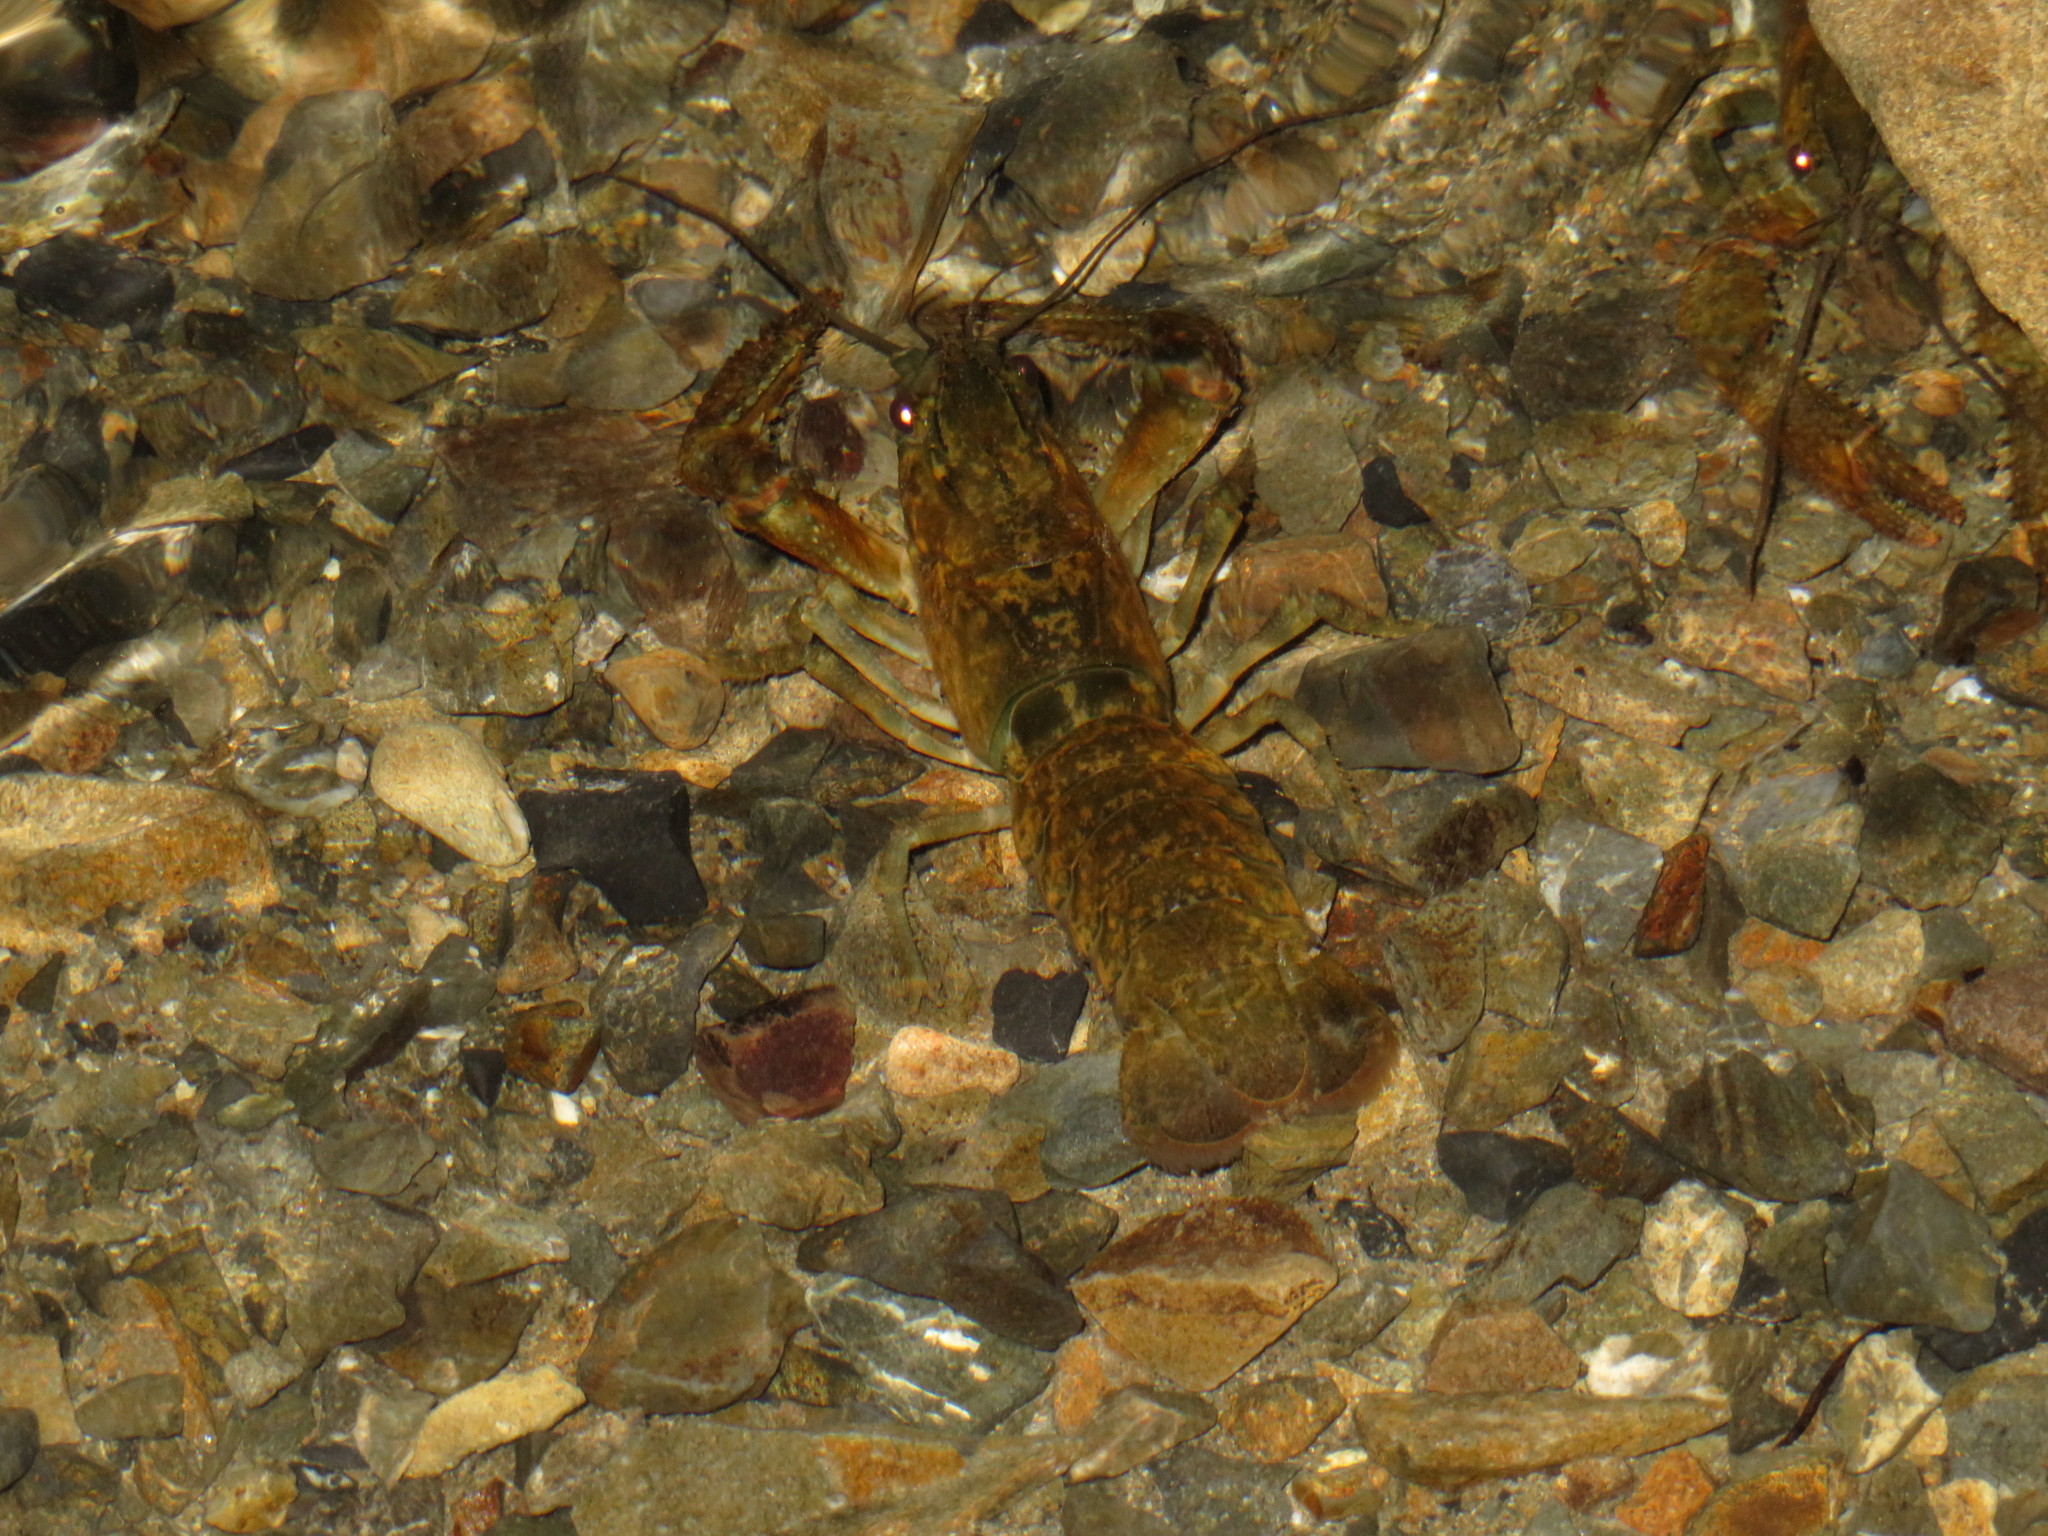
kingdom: Animalia
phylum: Arthropoda
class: Malacostraca
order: Decapoda
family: Parastacidae
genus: Paranephrops
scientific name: Paranephrops planifrons
